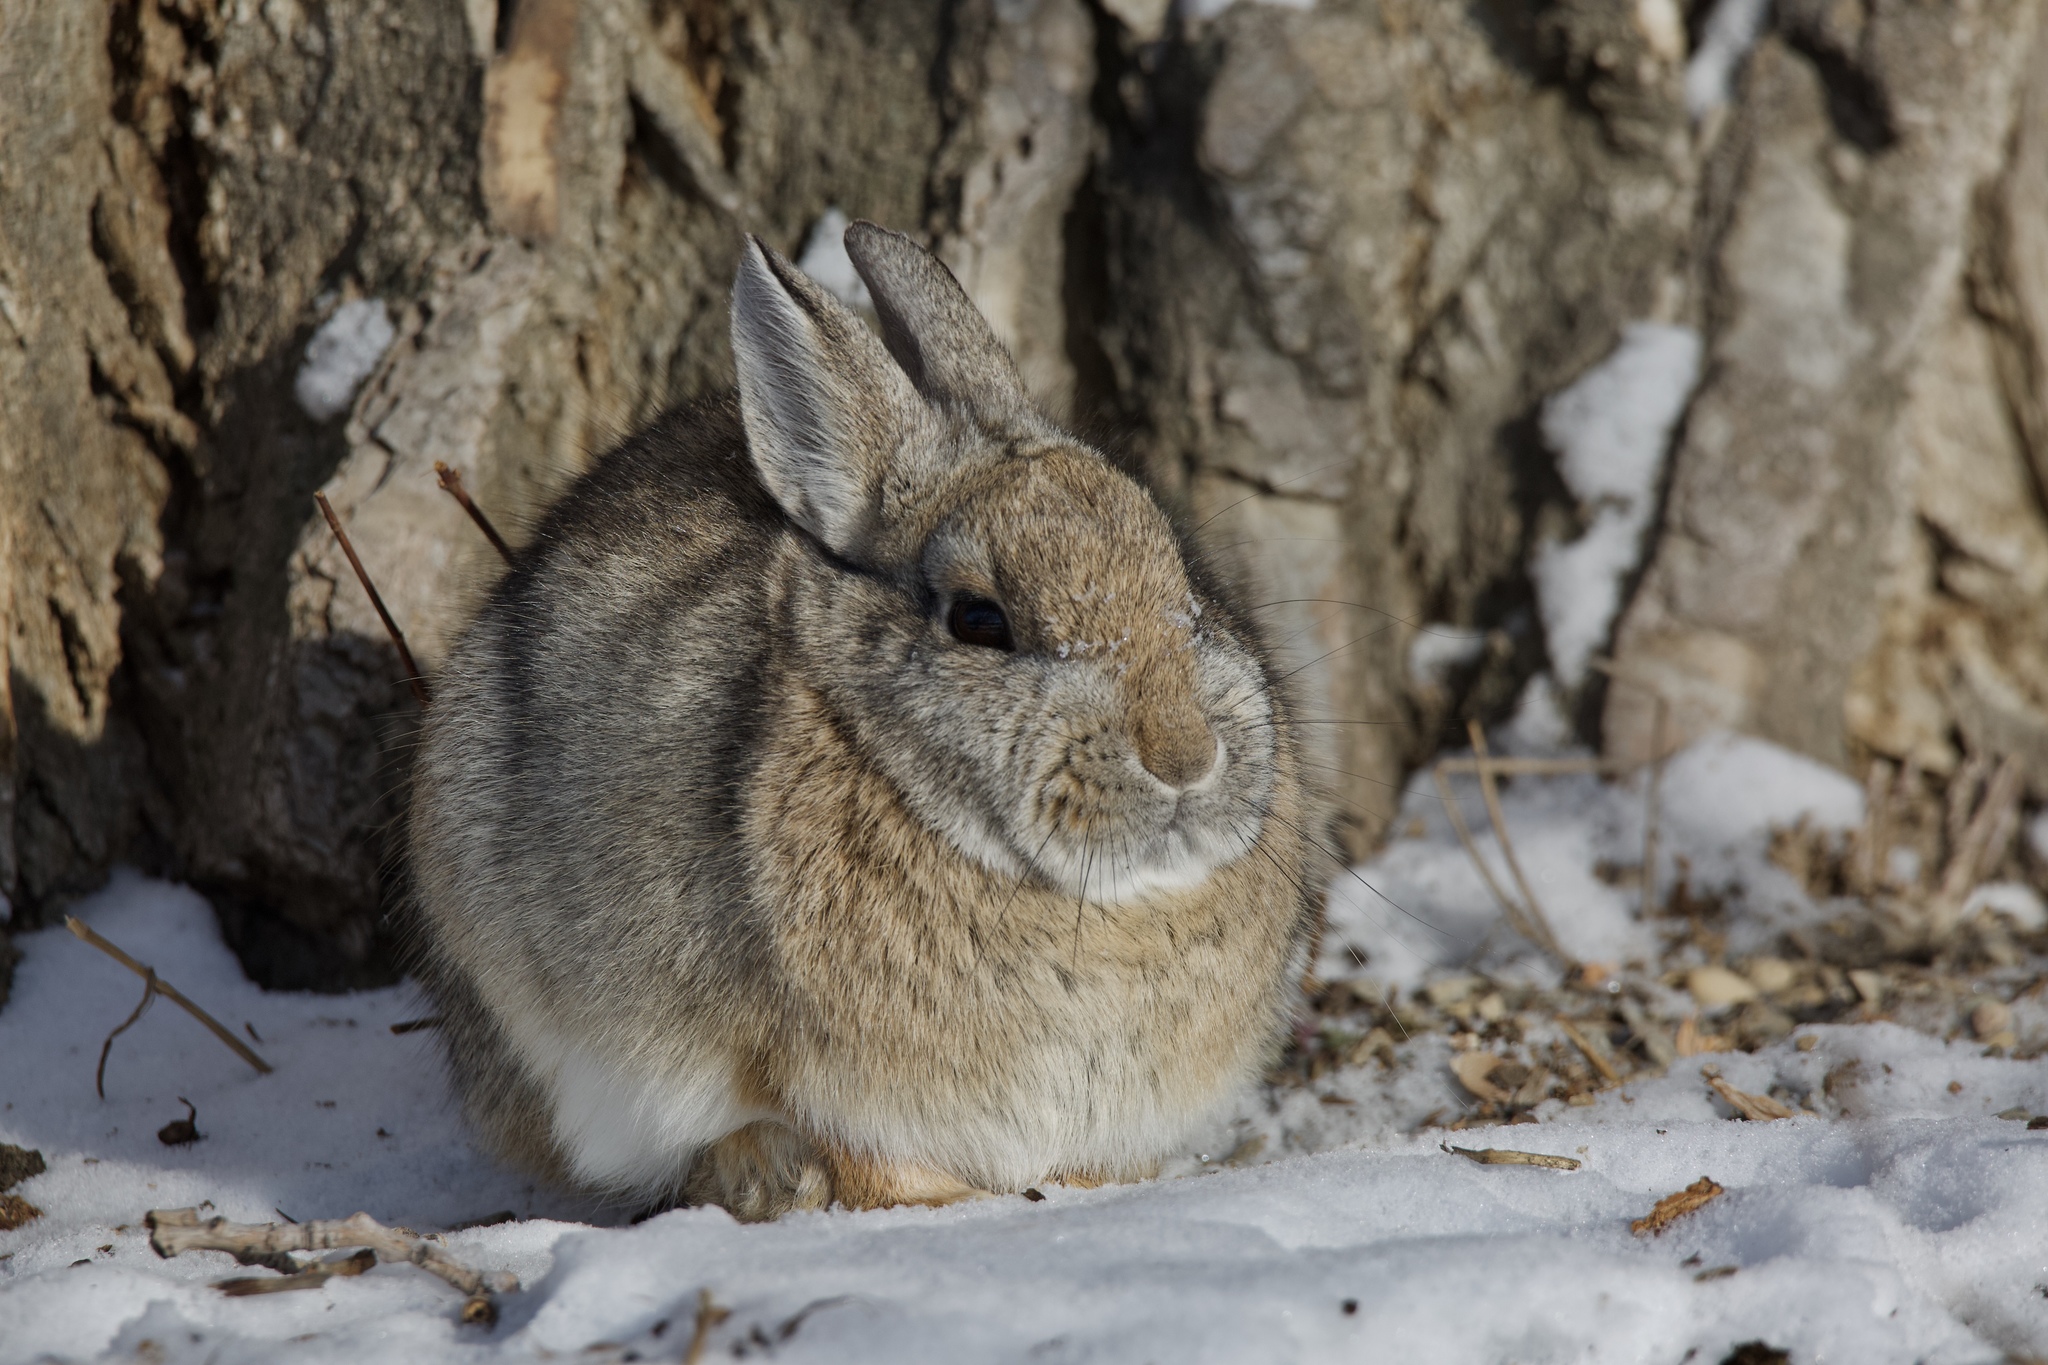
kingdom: Animalia
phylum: Chordata
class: Mammalia
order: Lagomorpha
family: Leporidae
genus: Sylvilagus
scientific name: Sylvilagus nuttallii
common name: Mountain cottontail
